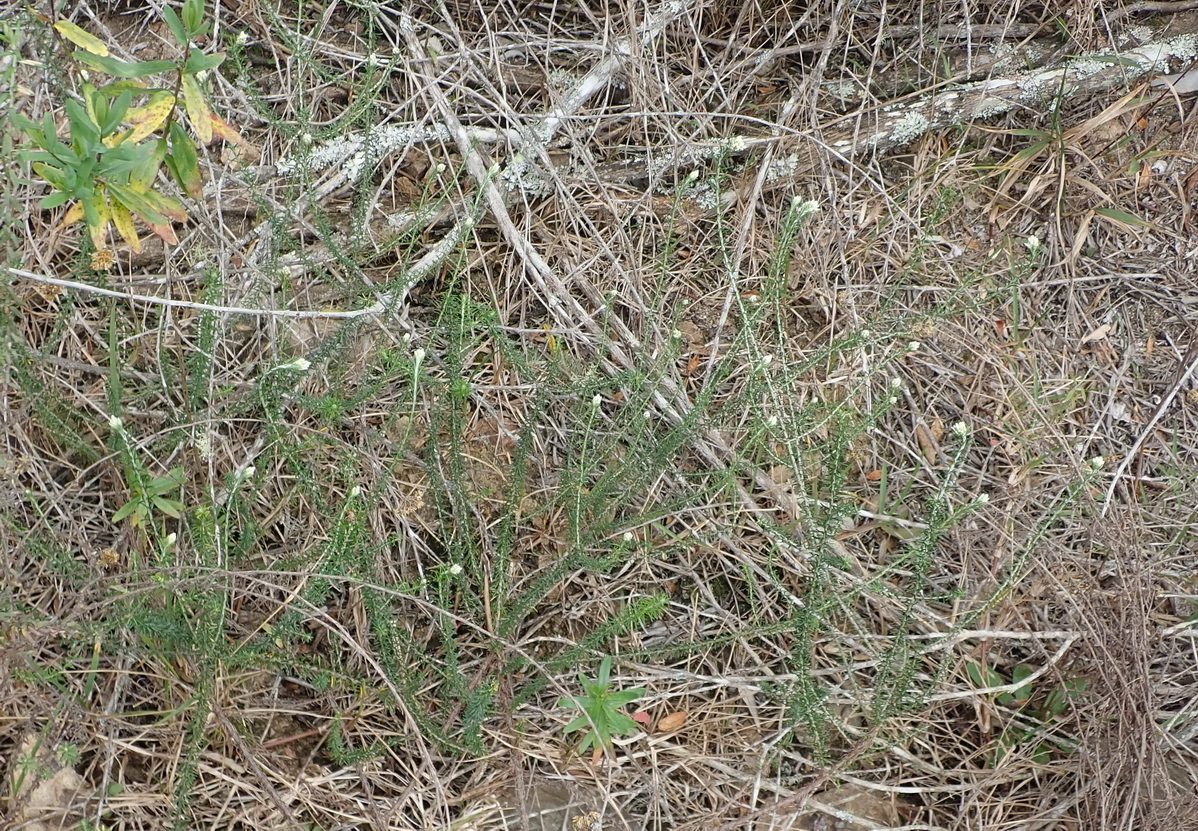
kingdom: Plantae
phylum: Tracheophyta
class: Magnoliopsida
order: Asterales
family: Asteraceae
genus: Helichrysum
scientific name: Helichrysum teretifolium
